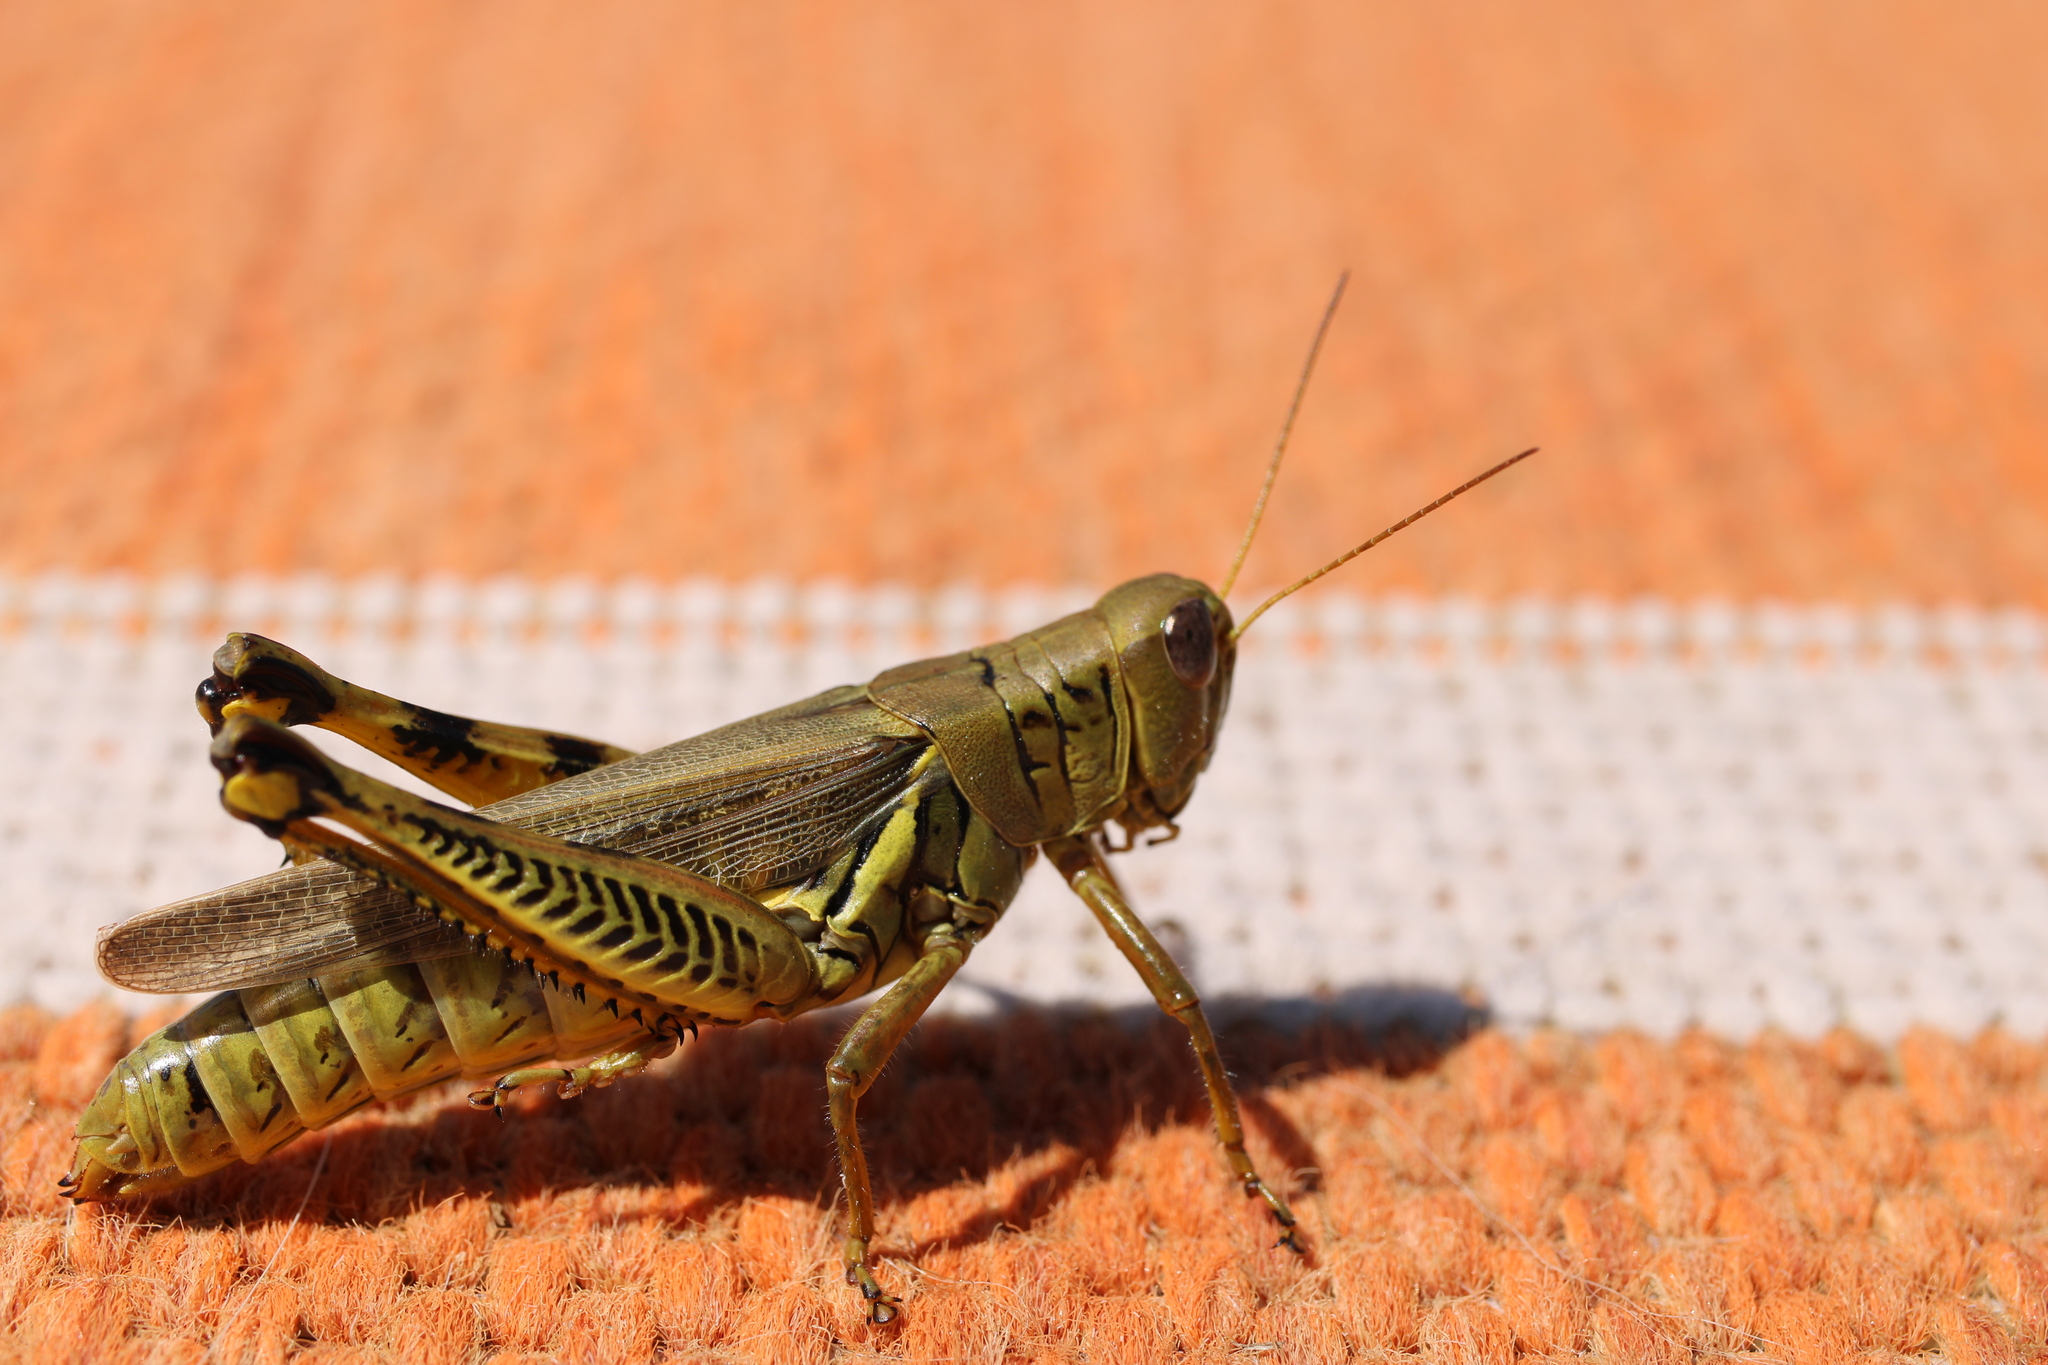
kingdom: Animalia
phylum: Arthropoda
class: Insecta
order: Orthoptera
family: Acrididae
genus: Melanoplus
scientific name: Melanoplus differentialis
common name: Differential grasshopper
